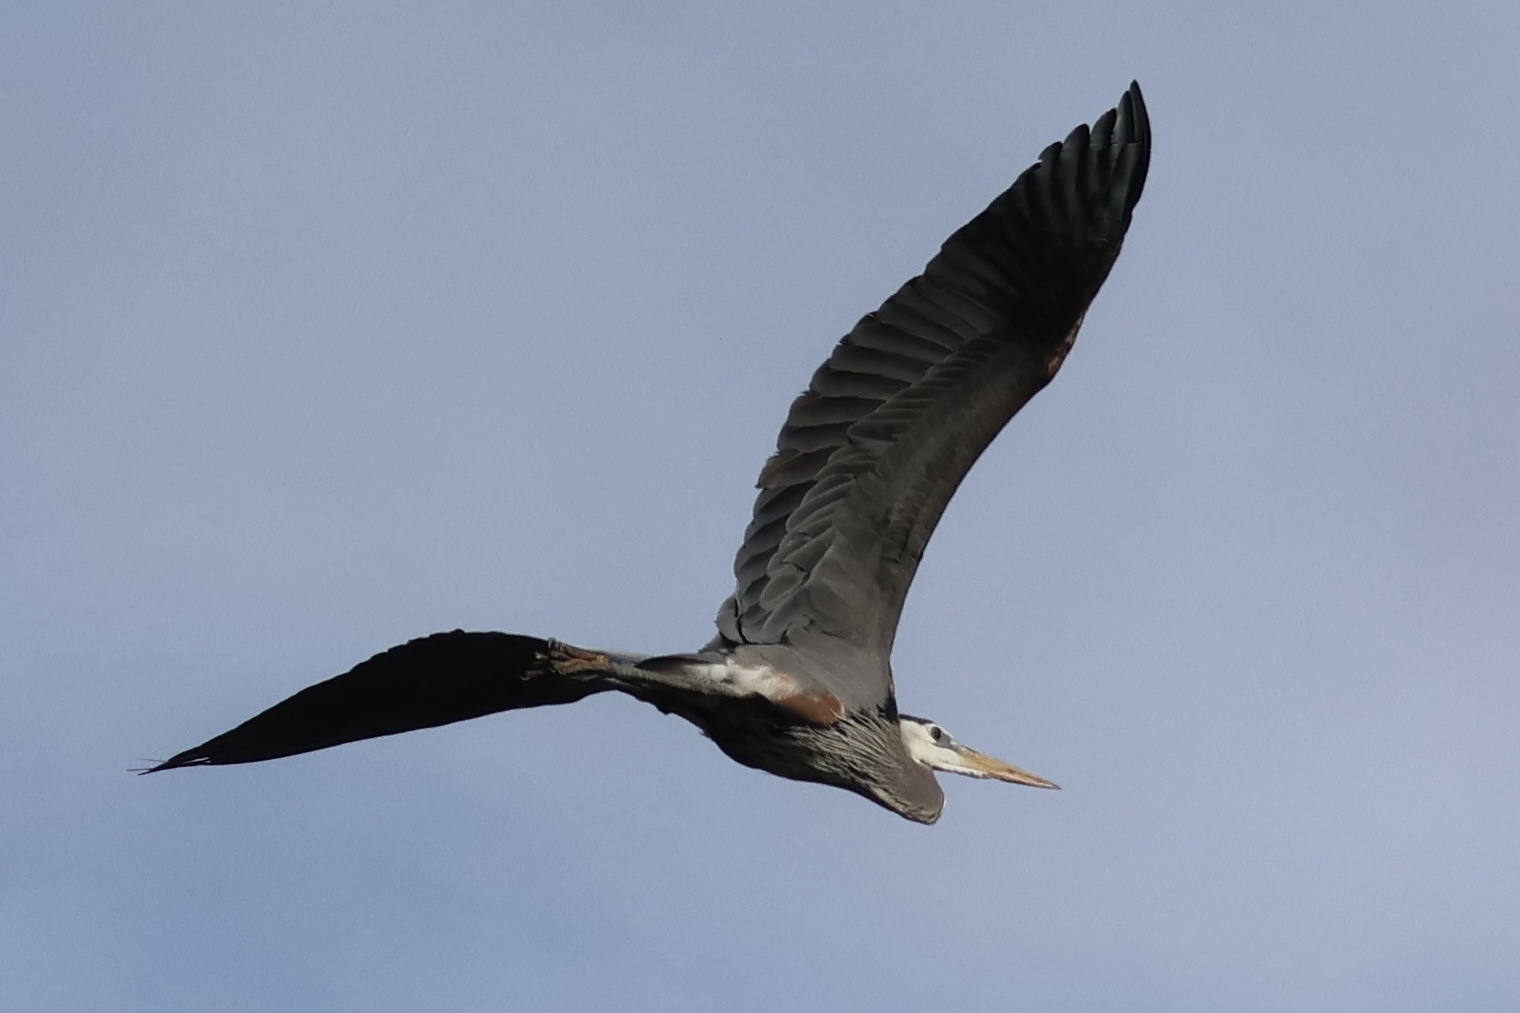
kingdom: Animalia
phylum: Chordata
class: Aves
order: Pelecaniformes
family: Ardeidae
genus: Ardea
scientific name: Ardea herodias
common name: Great blue heron
